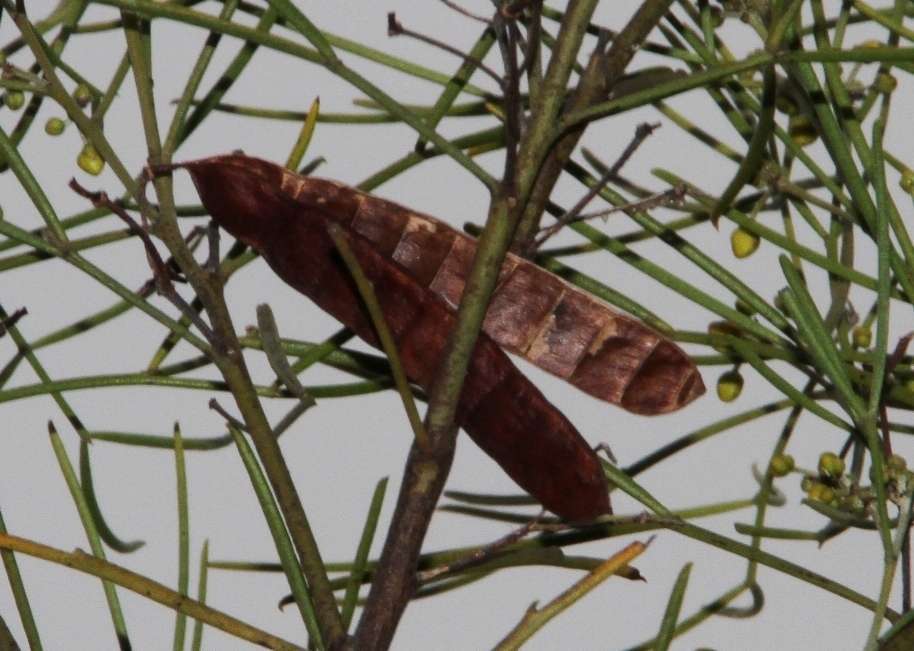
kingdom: Plantae
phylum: Tracheophyta
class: Magnoliopsida
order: Fabales
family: Fabaceae
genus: Senna
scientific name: Senna artemisioides
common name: Burnt-leaved acacia
